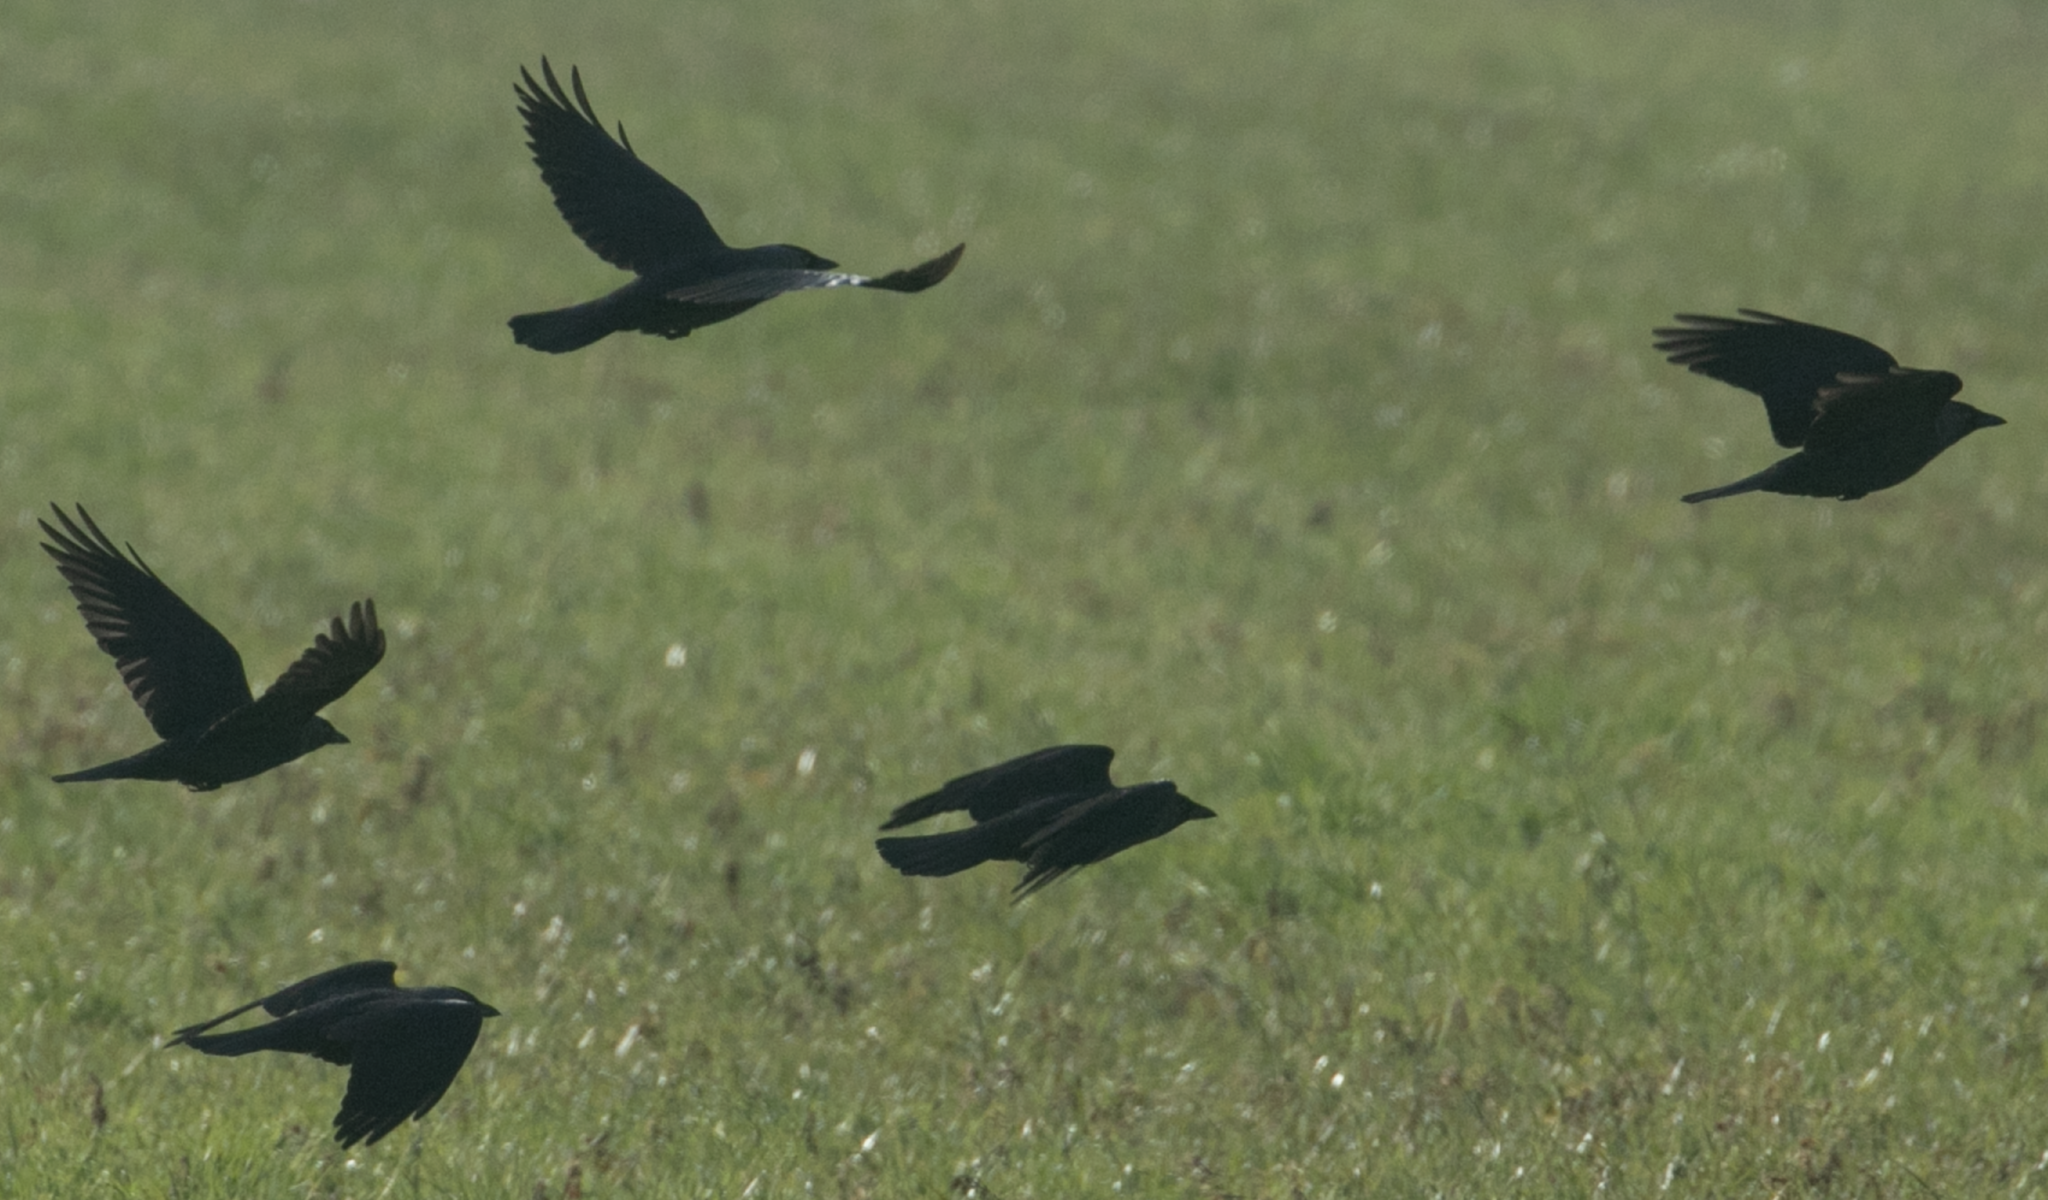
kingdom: Animalia
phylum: Chordata
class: Aves
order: Passeriformes
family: Corvidae
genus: Coloeus
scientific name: Coloeus monedula
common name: Western jackdaw
